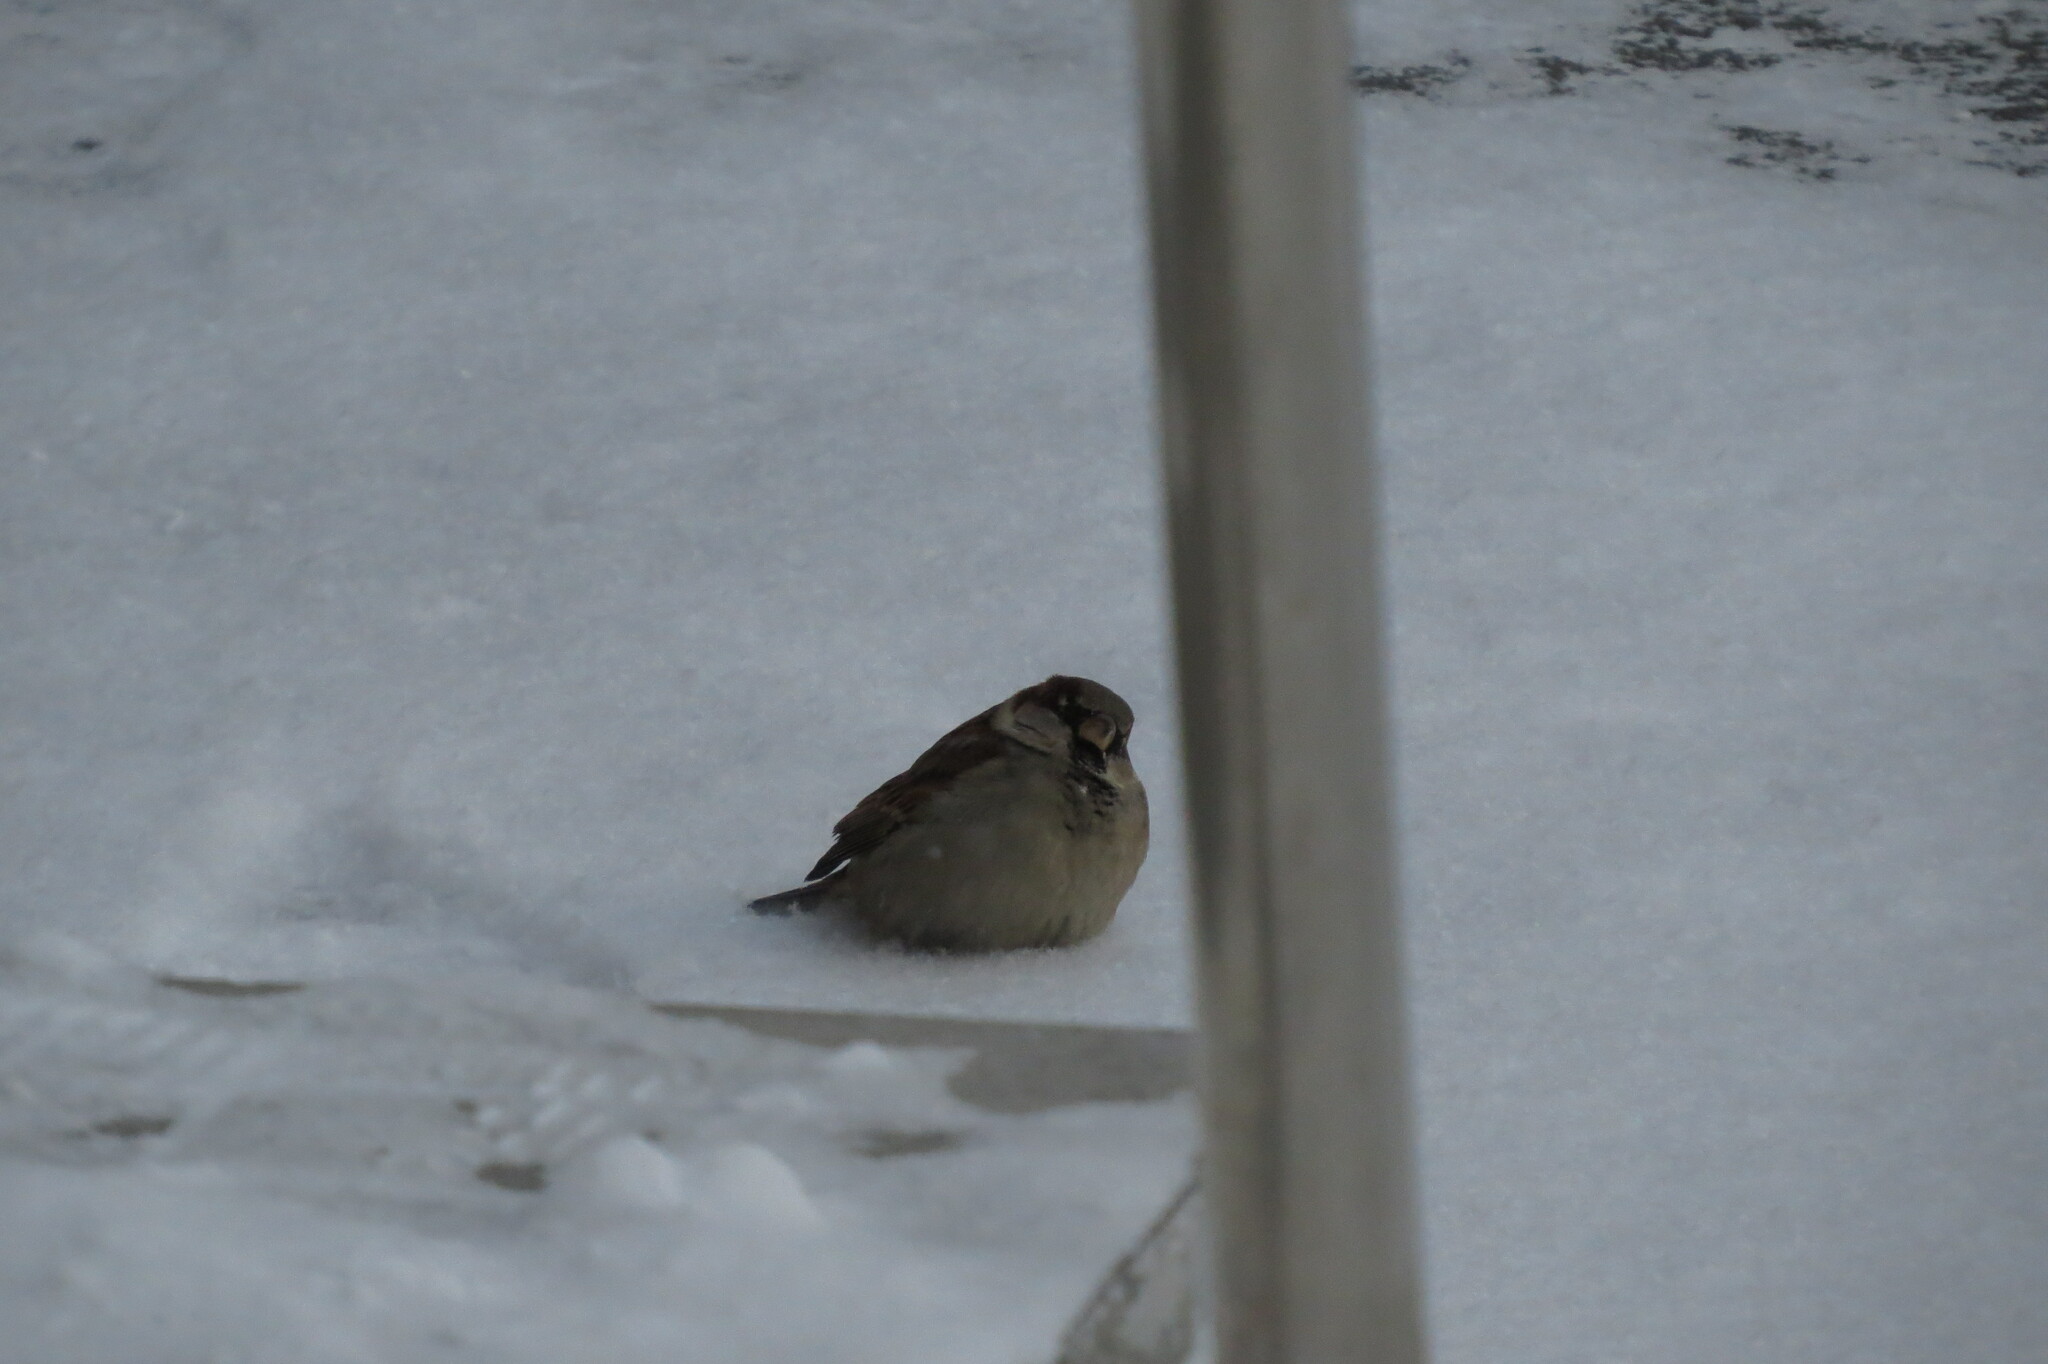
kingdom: Animalia
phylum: Chordata
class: Aves
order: Passeriformes
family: Passeridae
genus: Passer
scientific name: Passer domesticus
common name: House sparrow
